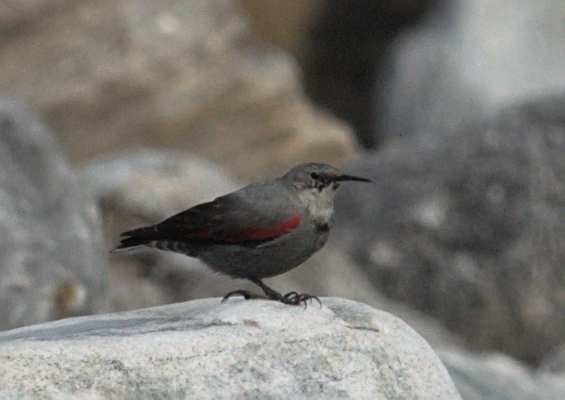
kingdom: Animalia
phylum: Chordata
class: Aves
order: Passeriformes
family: Tichodromidae
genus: Tichodroma
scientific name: Tichodroma muraria
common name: Wallcreeper
